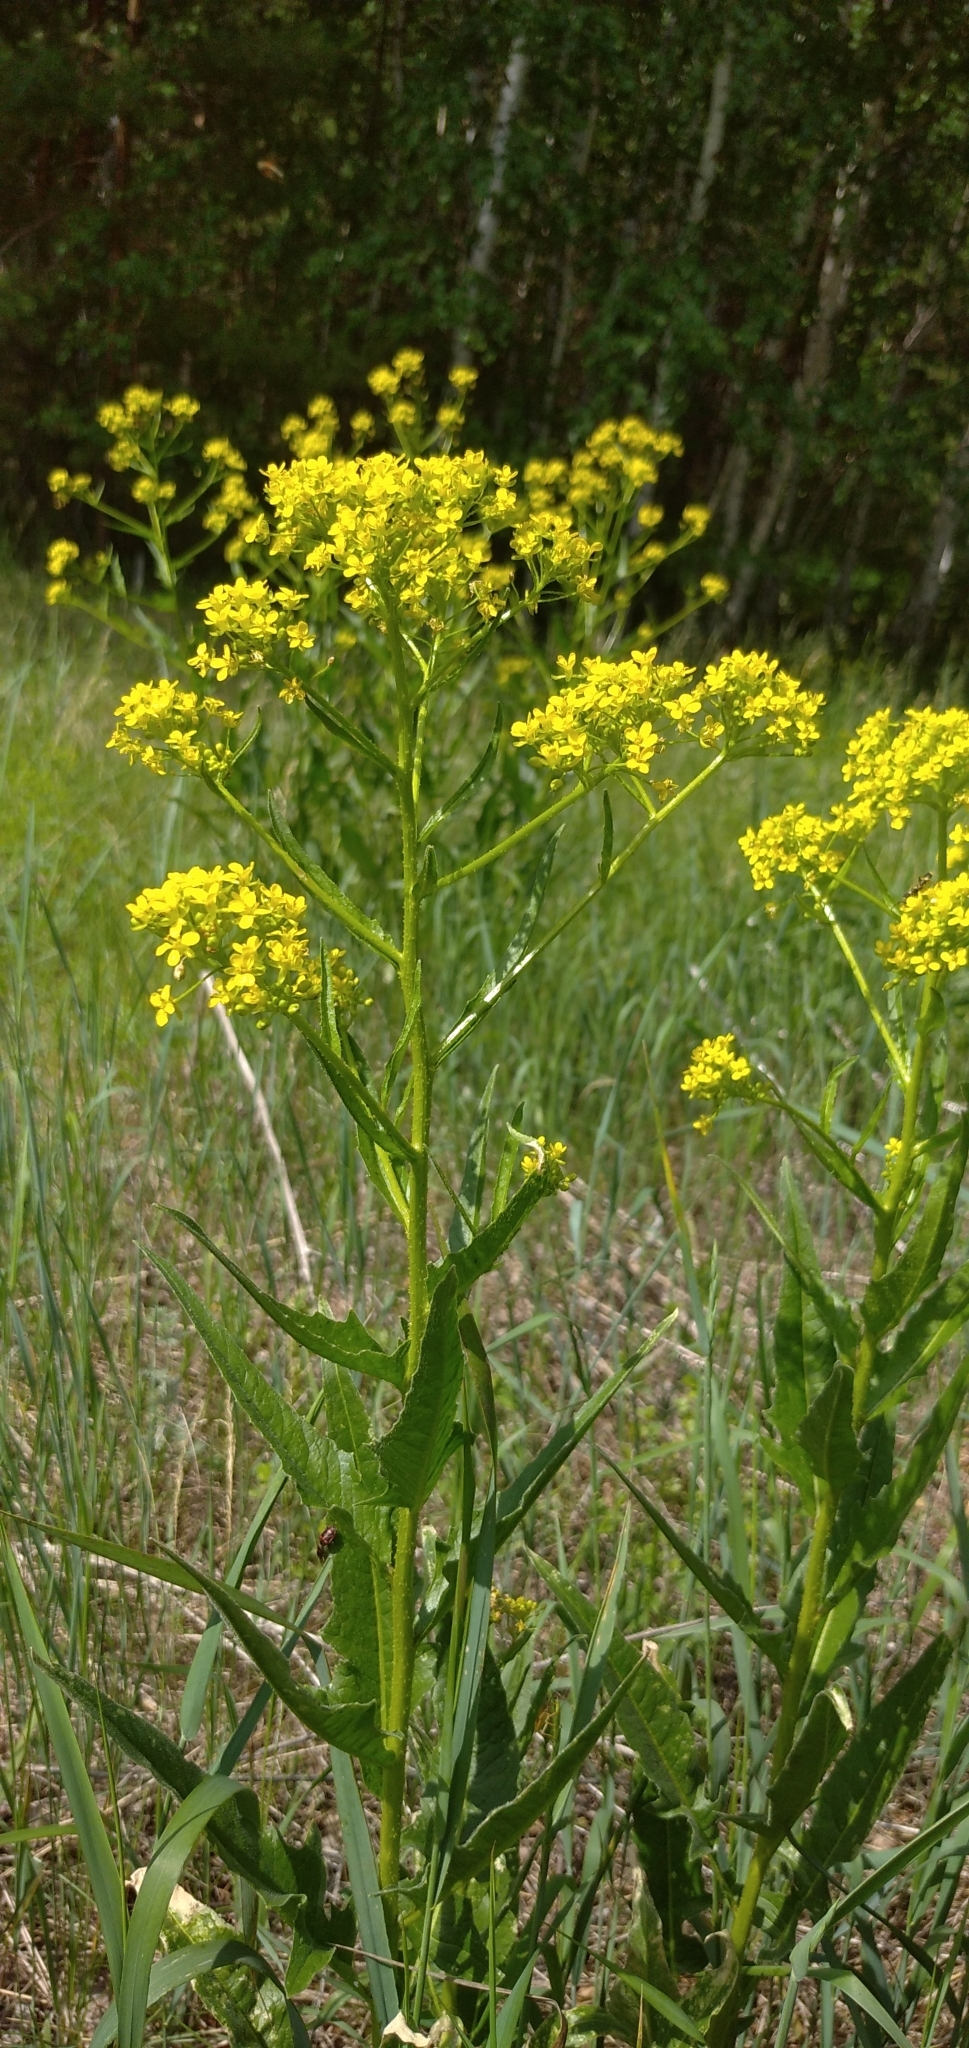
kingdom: Plantae
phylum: Tracheophyta
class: Magnoliopsida
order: Brassicales
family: Brassicaceae
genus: Bunias
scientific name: Bunias orientalis
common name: Warty-cabbage
